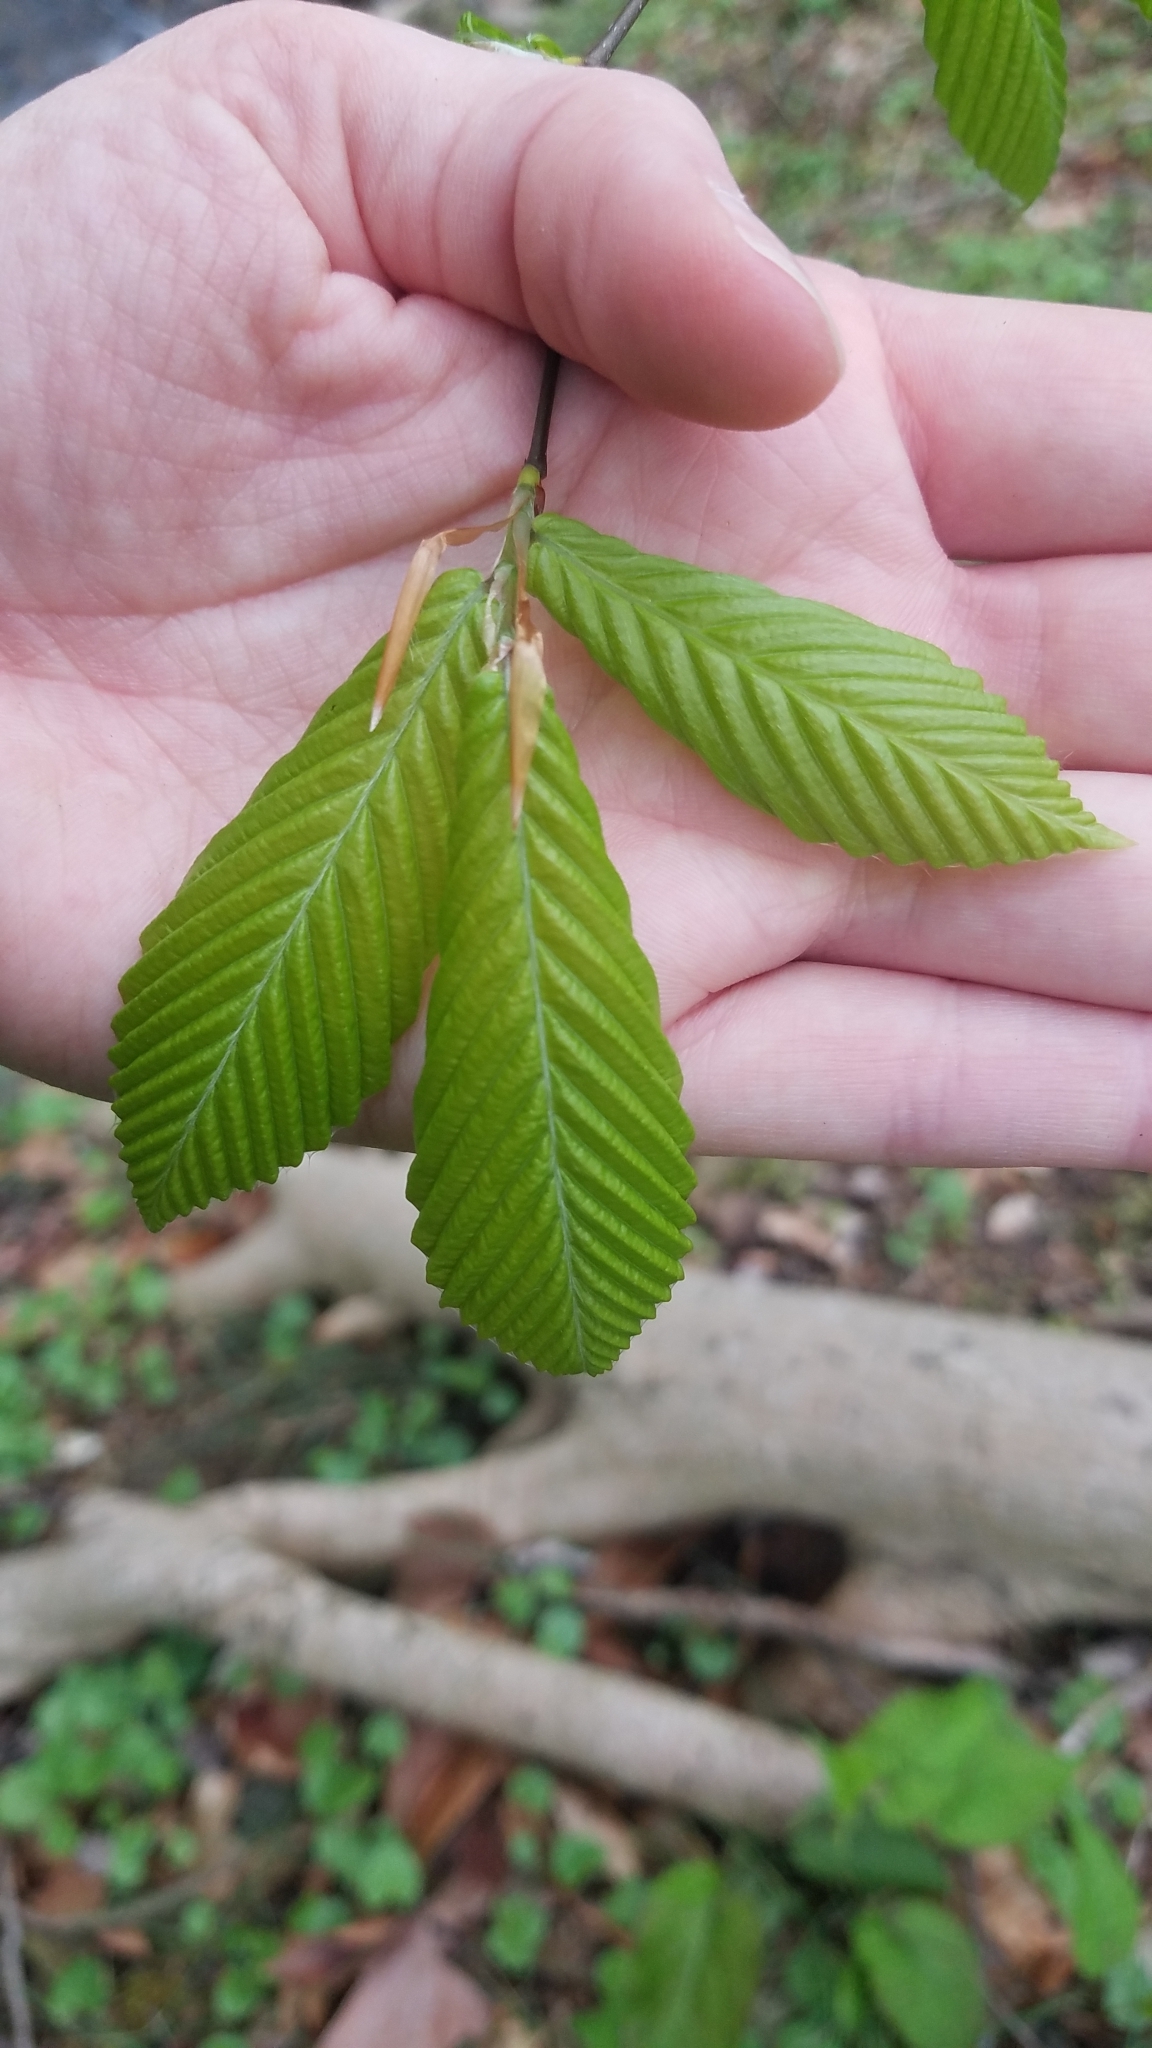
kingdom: Plantae
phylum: Tracheophyta
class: Magnoliopsida
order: Fagales
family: Fagaceae
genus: Fagus
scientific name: Fagus grandifolia
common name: American beech
